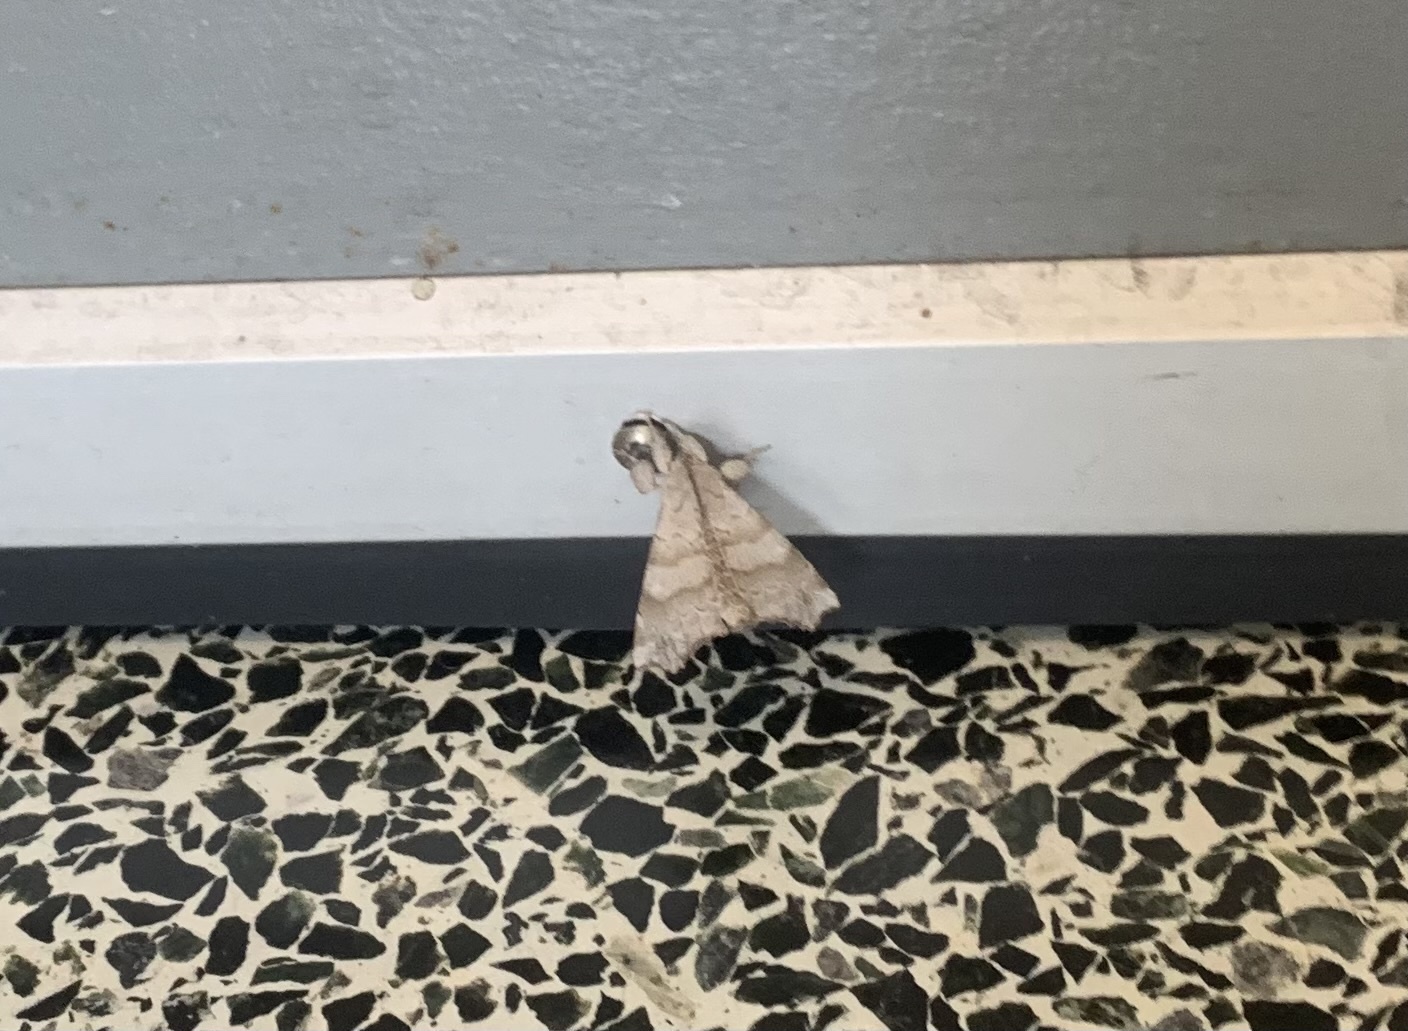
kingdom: Animalia
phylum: Arthropoda
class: Insecta
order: Lepidoptera
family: Apatelodidae
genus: Olceclostera
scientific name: Olceclostera angelica
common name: Angel moth
